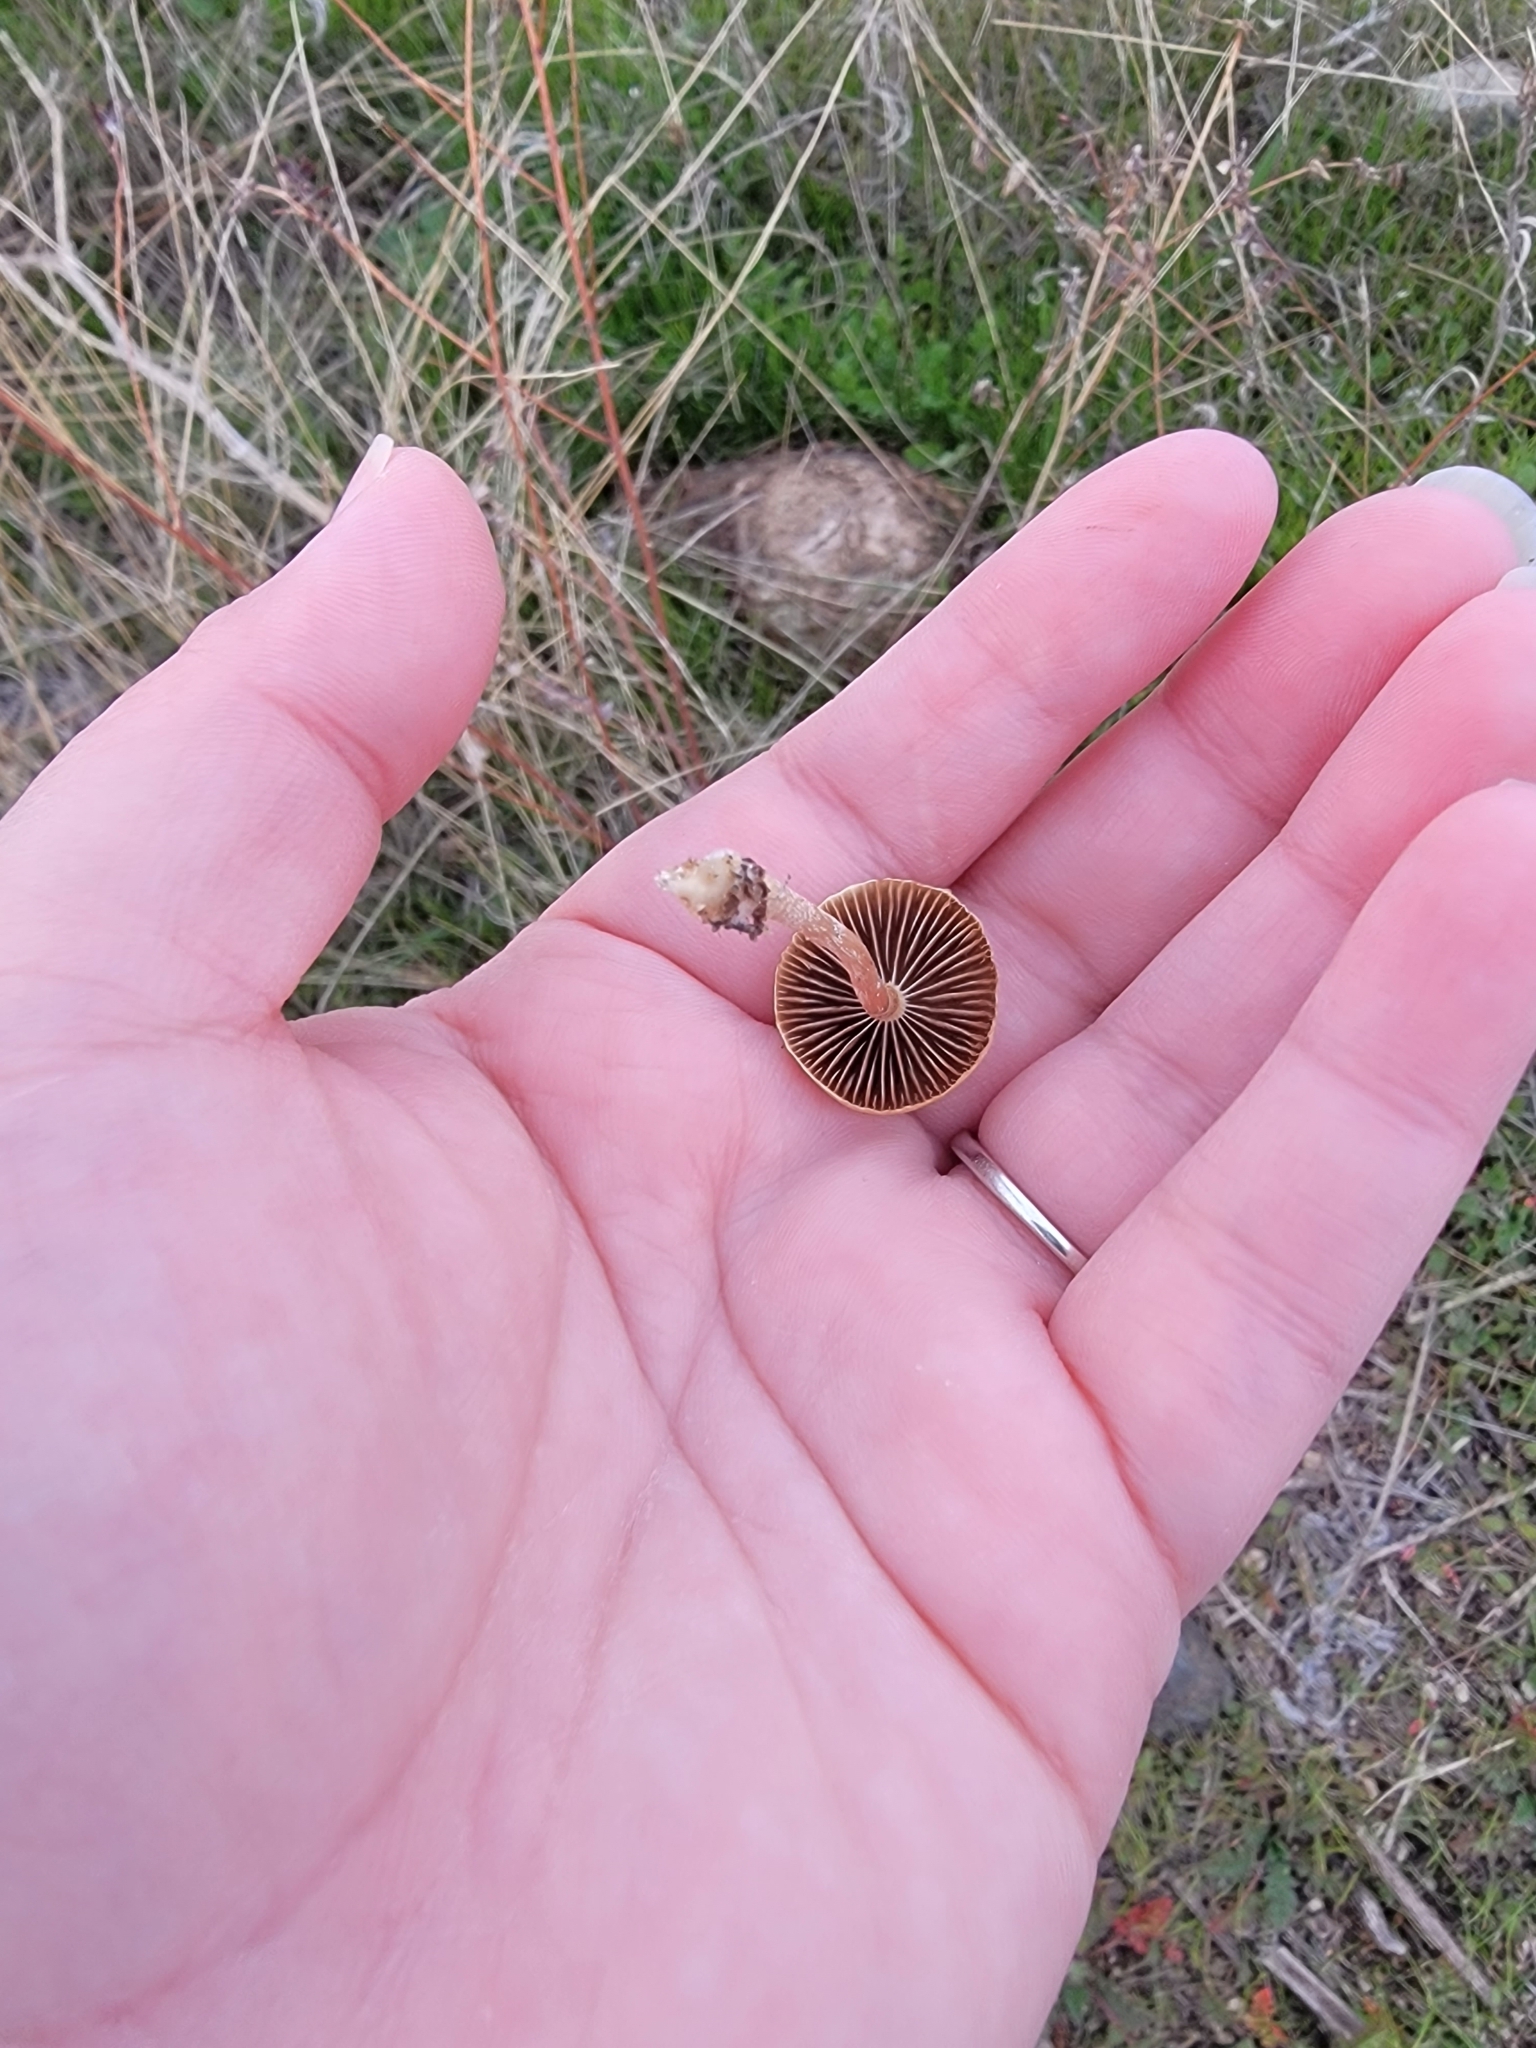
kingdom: Fungi
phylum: Basidiomycota
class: Agaricomycetes
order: Agaricales
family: Strophariaceae
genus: Agrocybe
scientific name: Agrocybe pediades
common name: Common fieldcap
